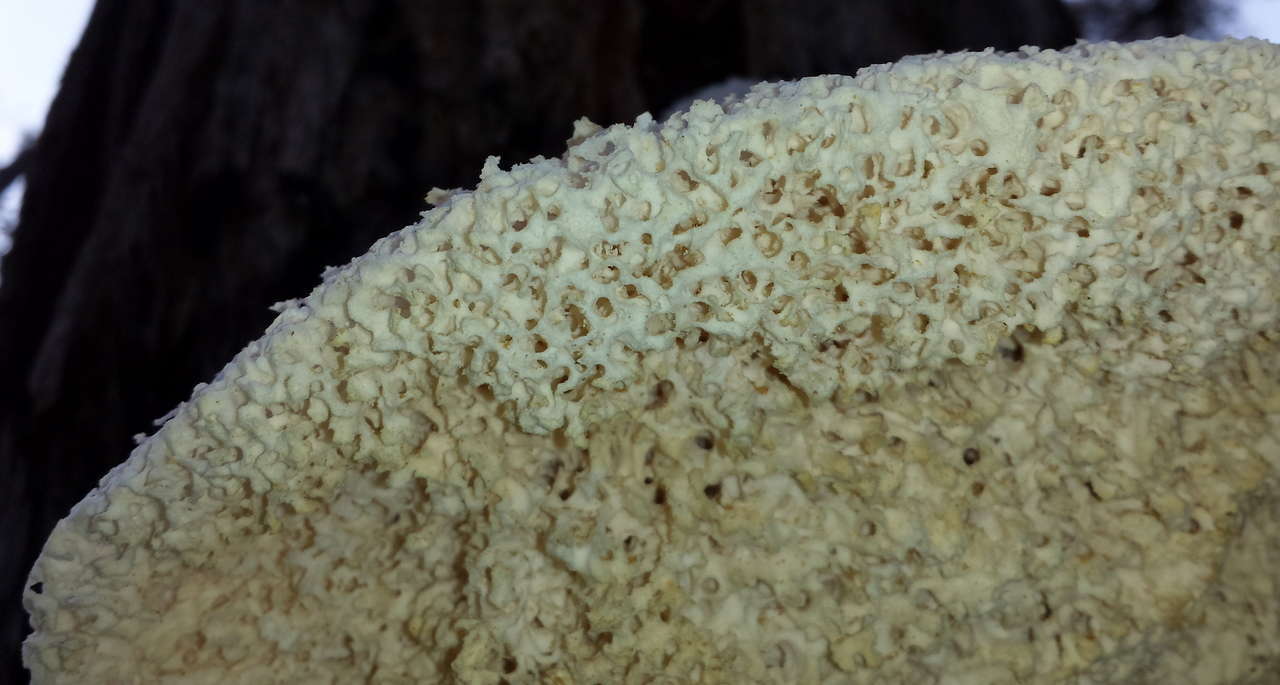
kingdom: Fungi
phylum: Basidiomycota
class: Agaricomycetes
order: Polyporales
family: Laetiporaceae
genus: Laetiporus
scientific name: Laetiporus portentosus
